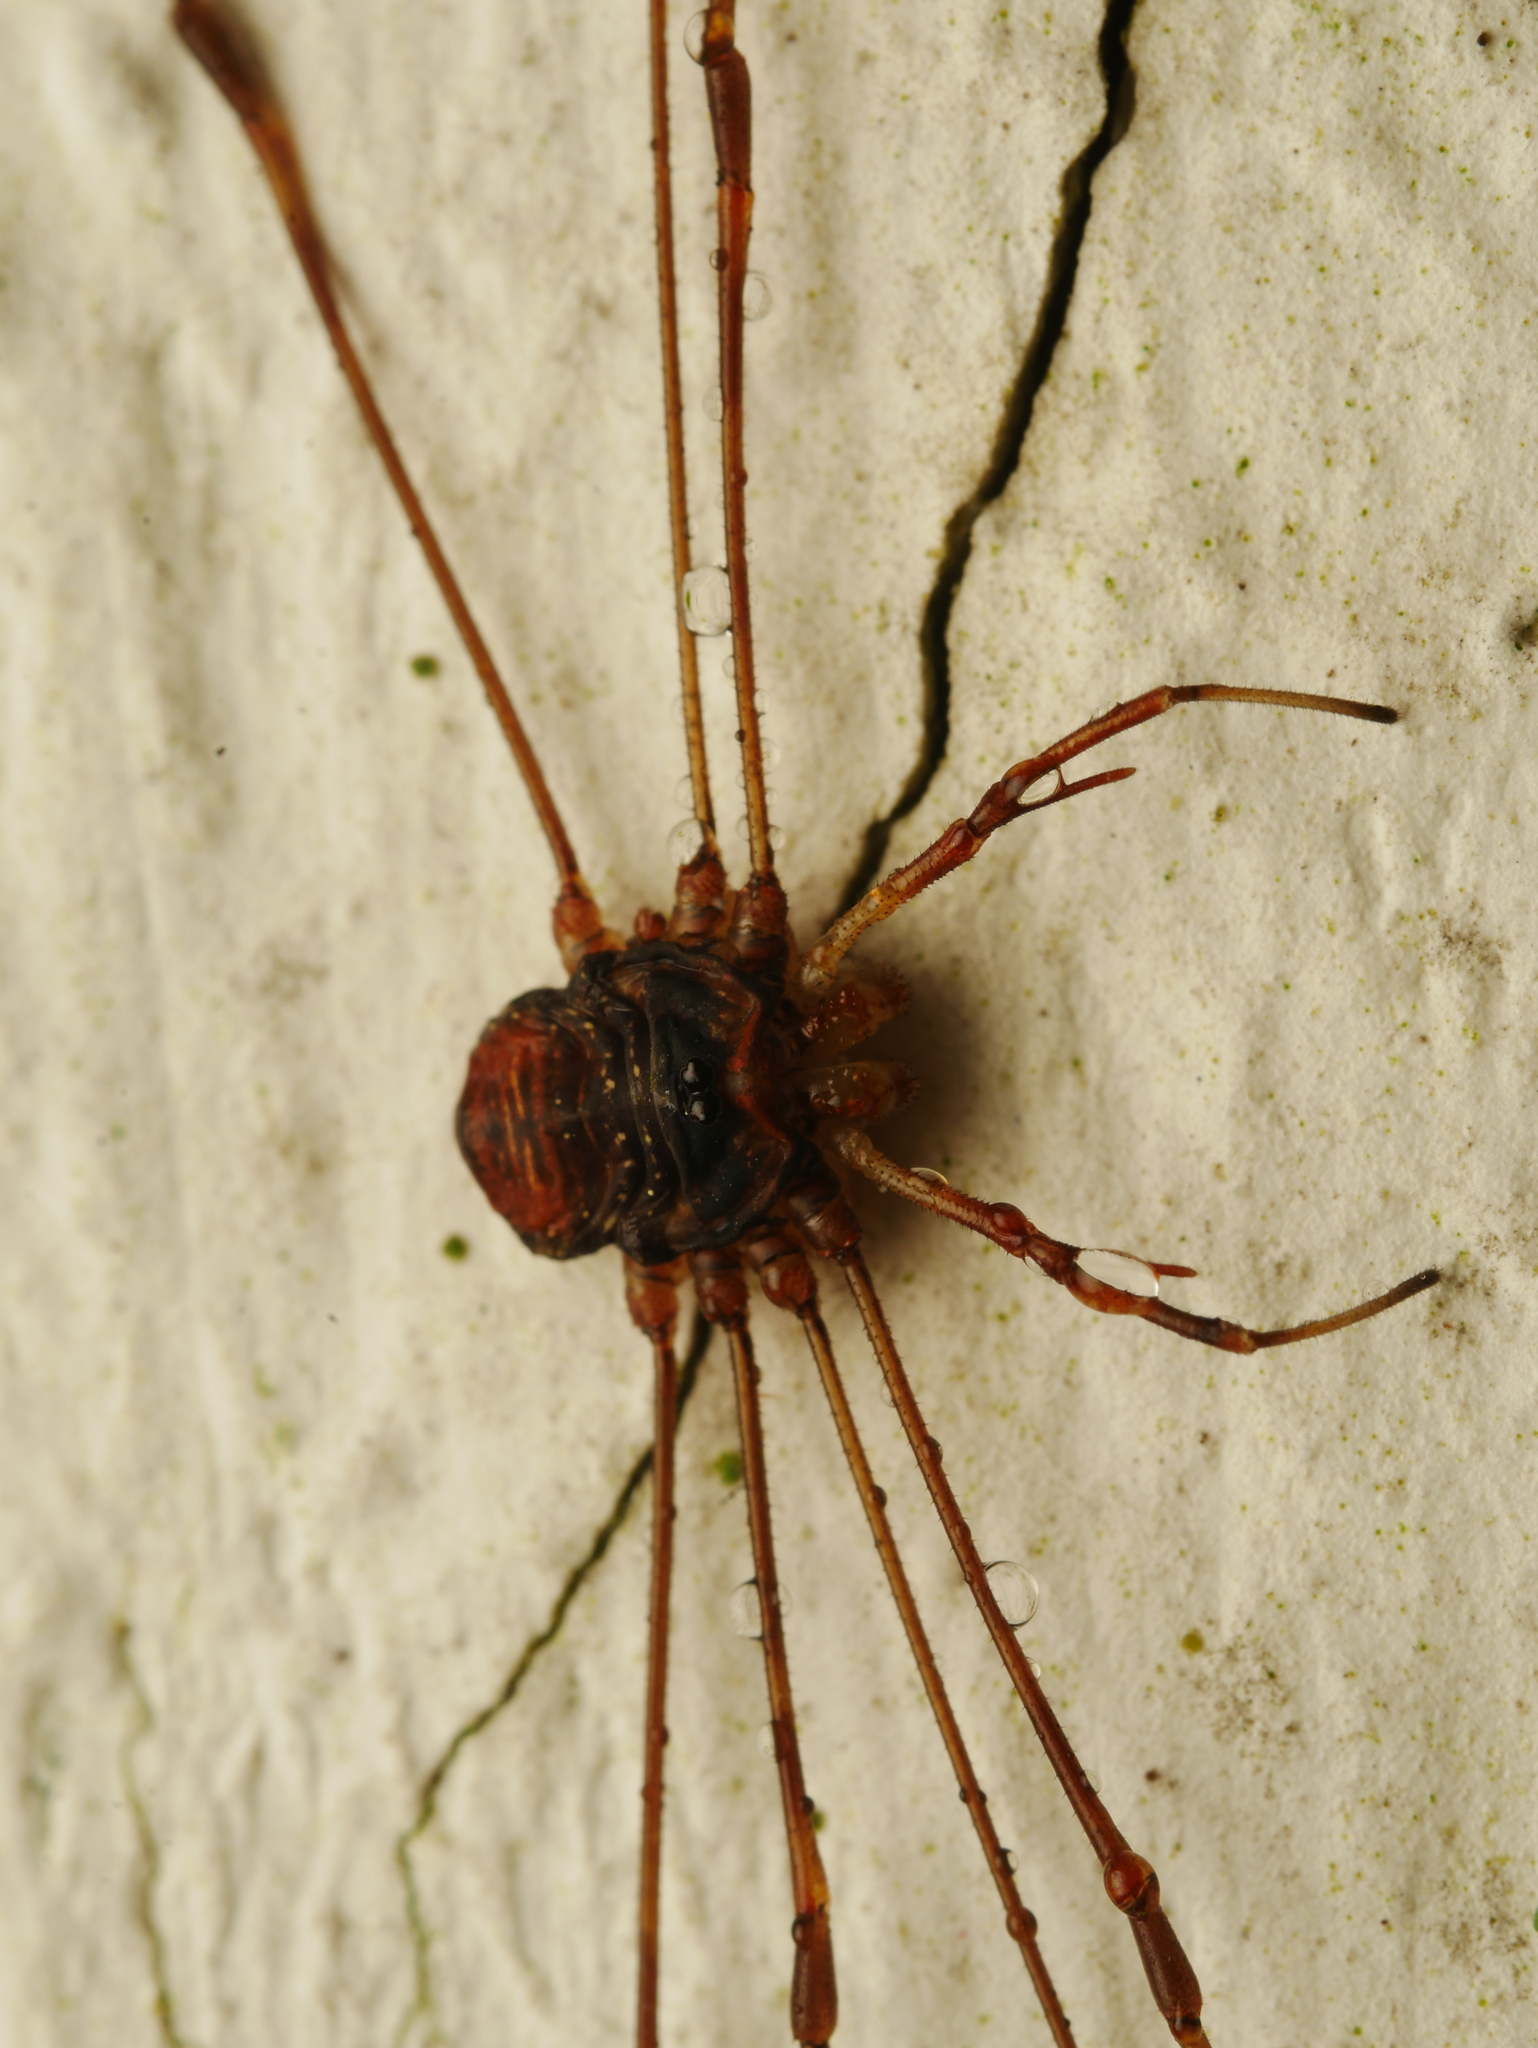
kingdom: Animalia
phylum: Arthropoda
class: Arachnida
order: Opiliones
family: Phalangiidae
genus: Dicranopalpus
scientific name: Dicranopalpus ramosus
